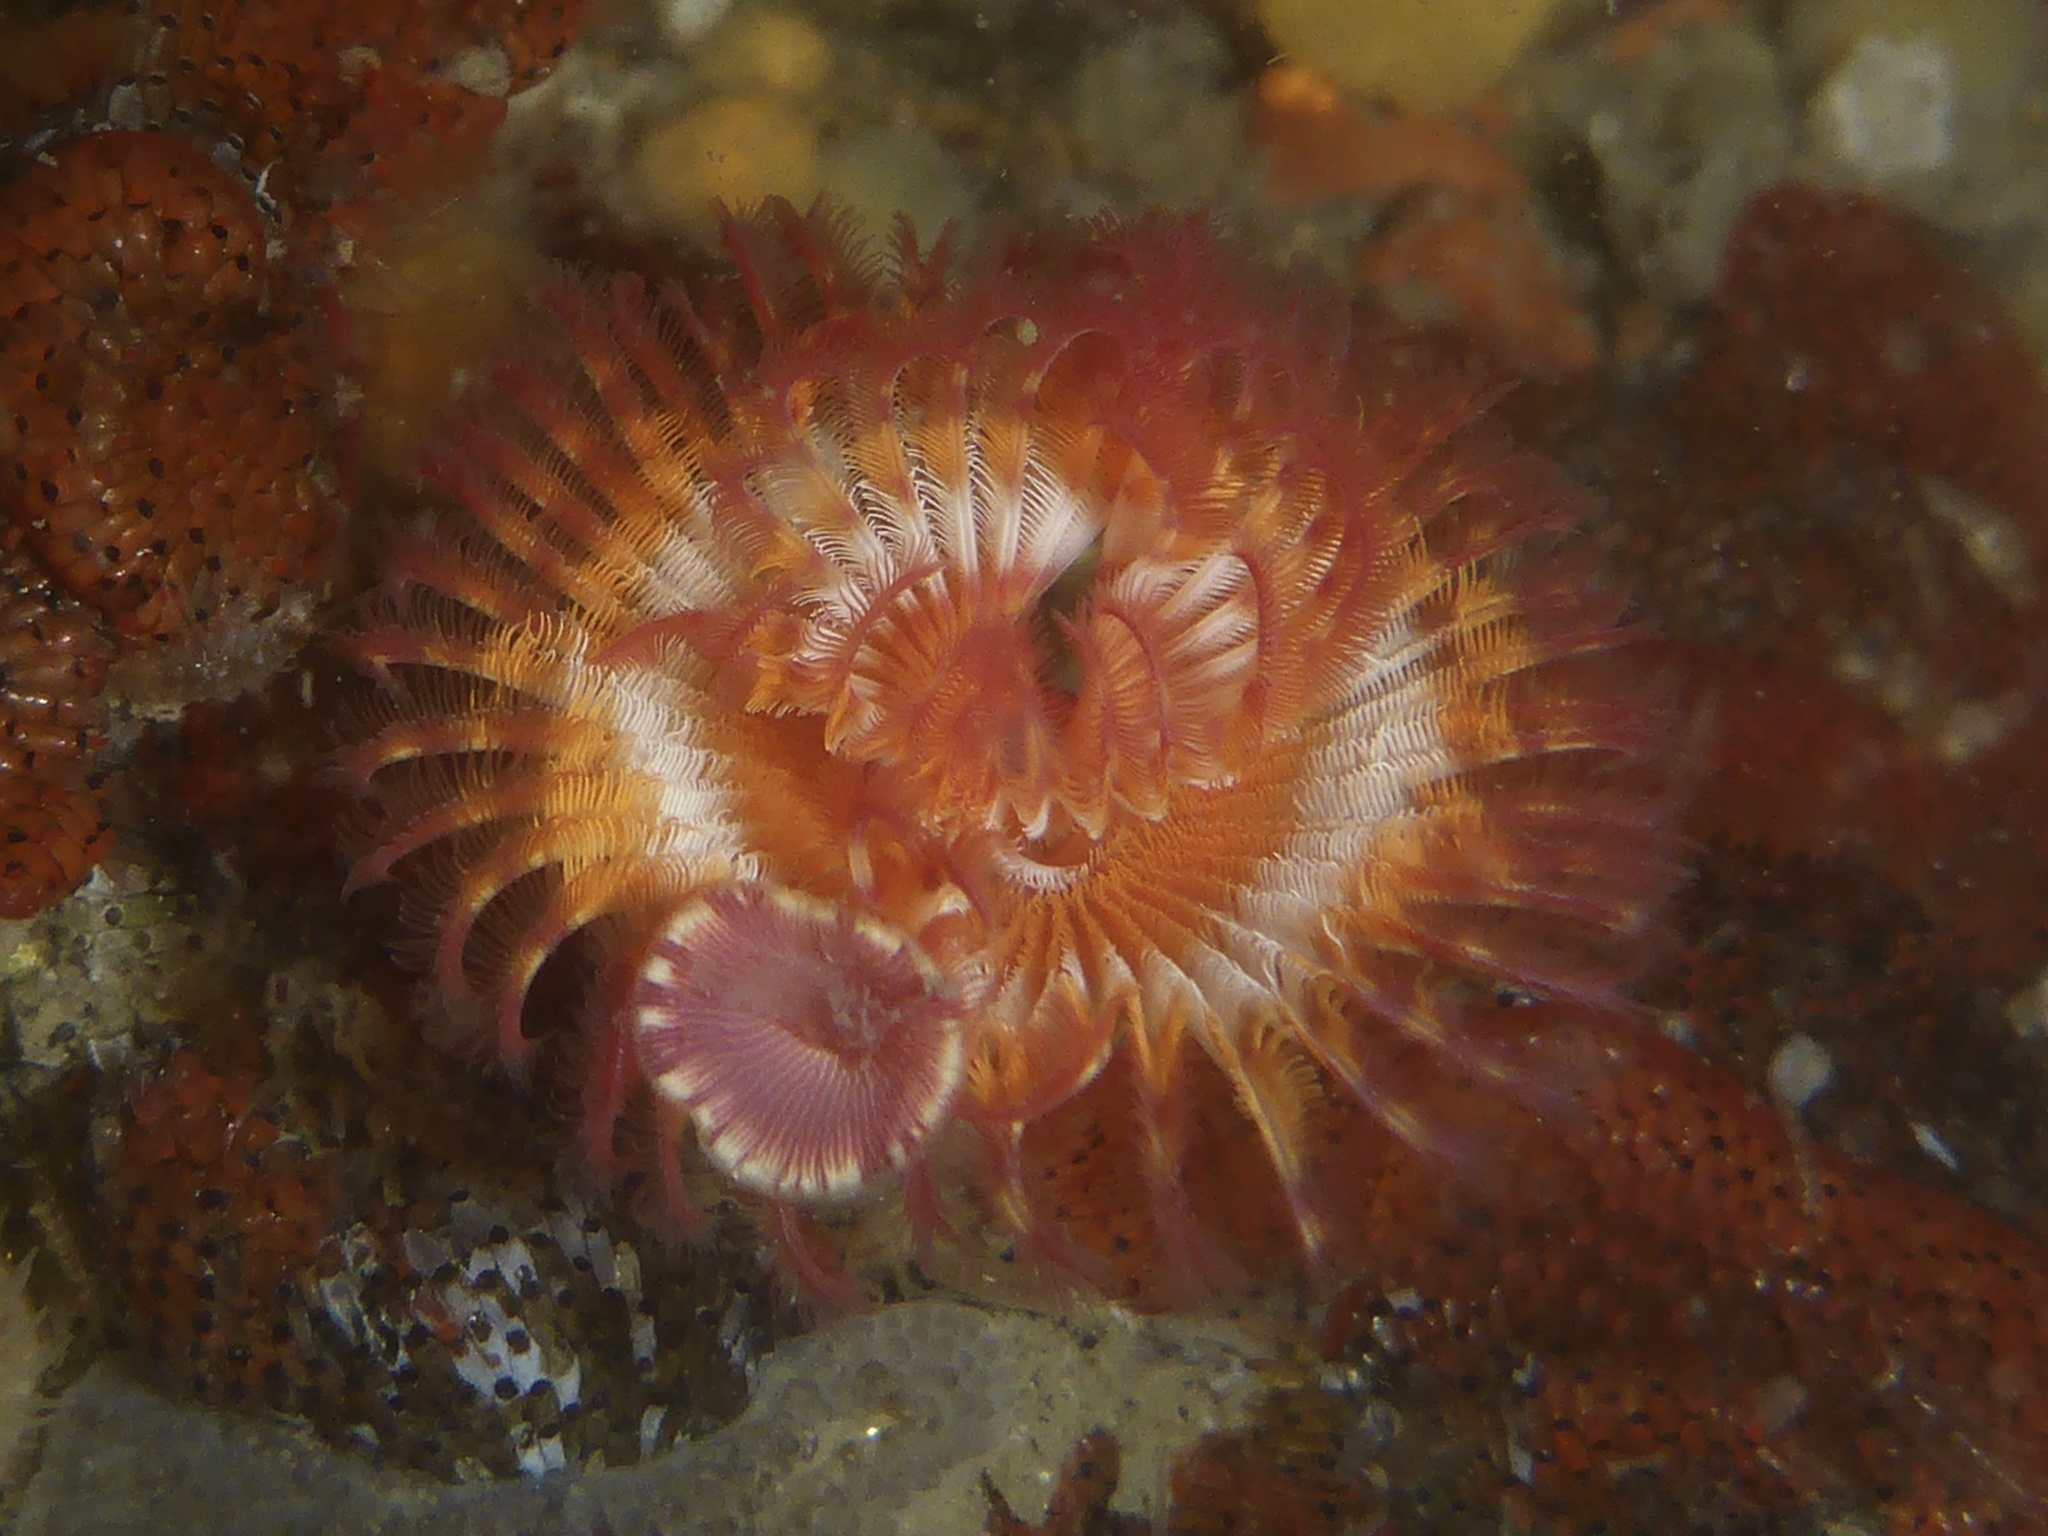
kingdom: Animalia
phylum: Annelida
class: Polychaeta
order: Sabellida
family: Serpulidae
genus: Serpula
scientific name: Serpula columbiana
